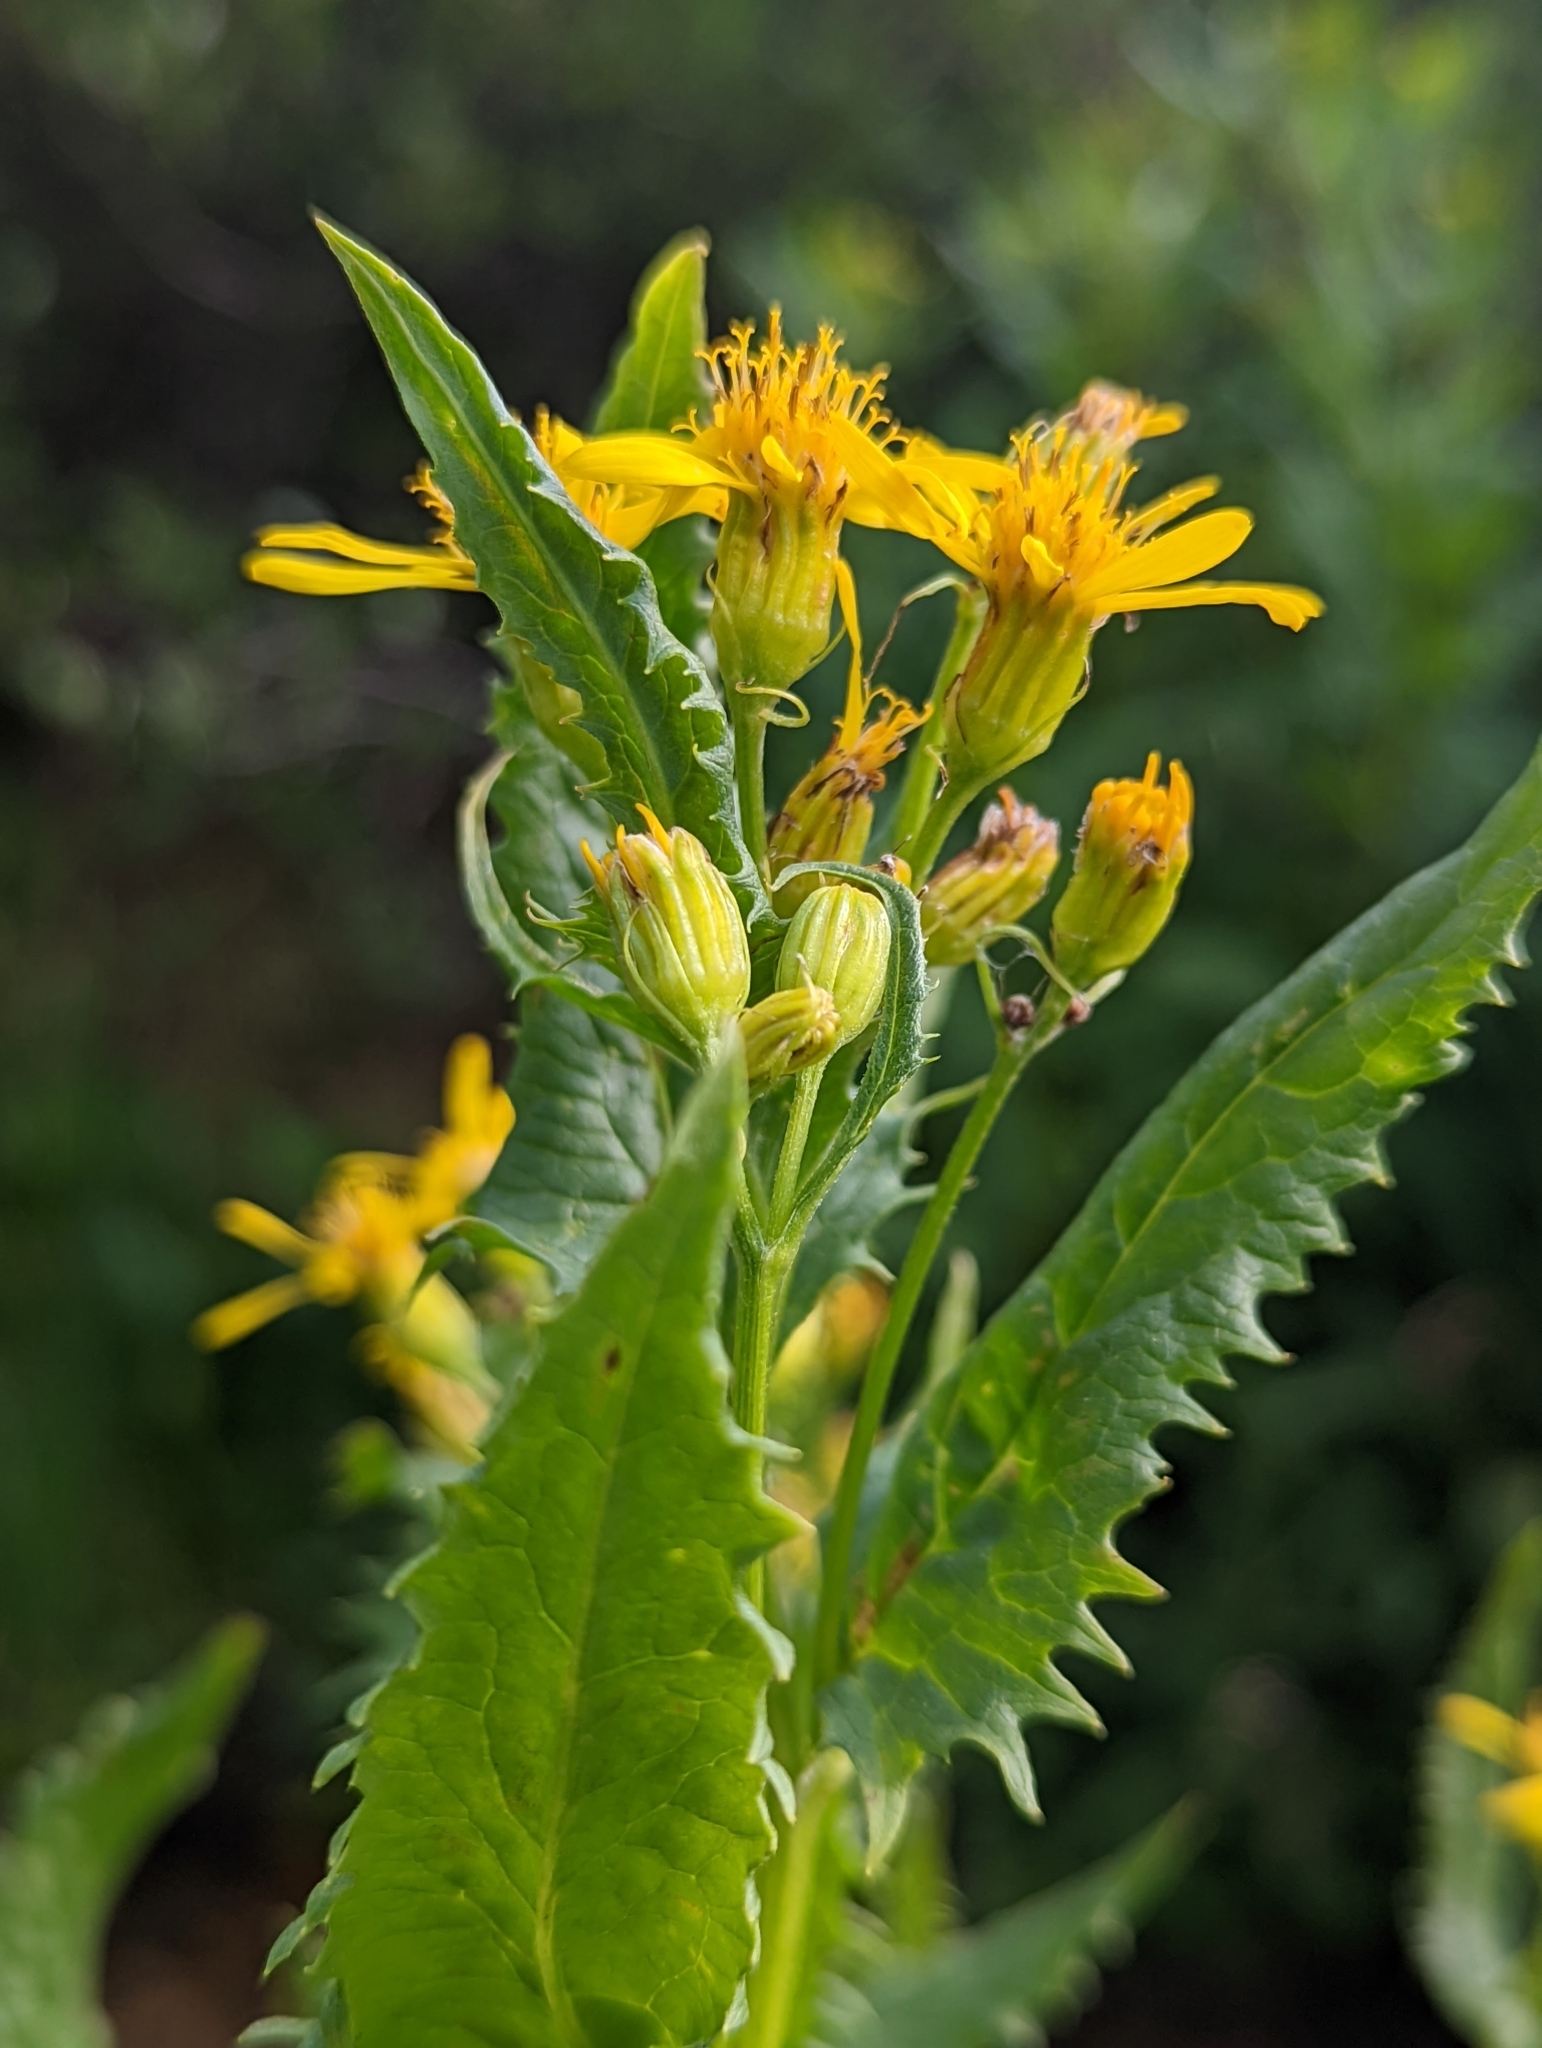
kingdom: Plantae
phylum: Tracheophyta
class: Magnoliopsida
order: Asterales
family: Asteraceae
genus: Senecio
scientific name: Senecio triangularis
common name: Arrowleaf butterweed
